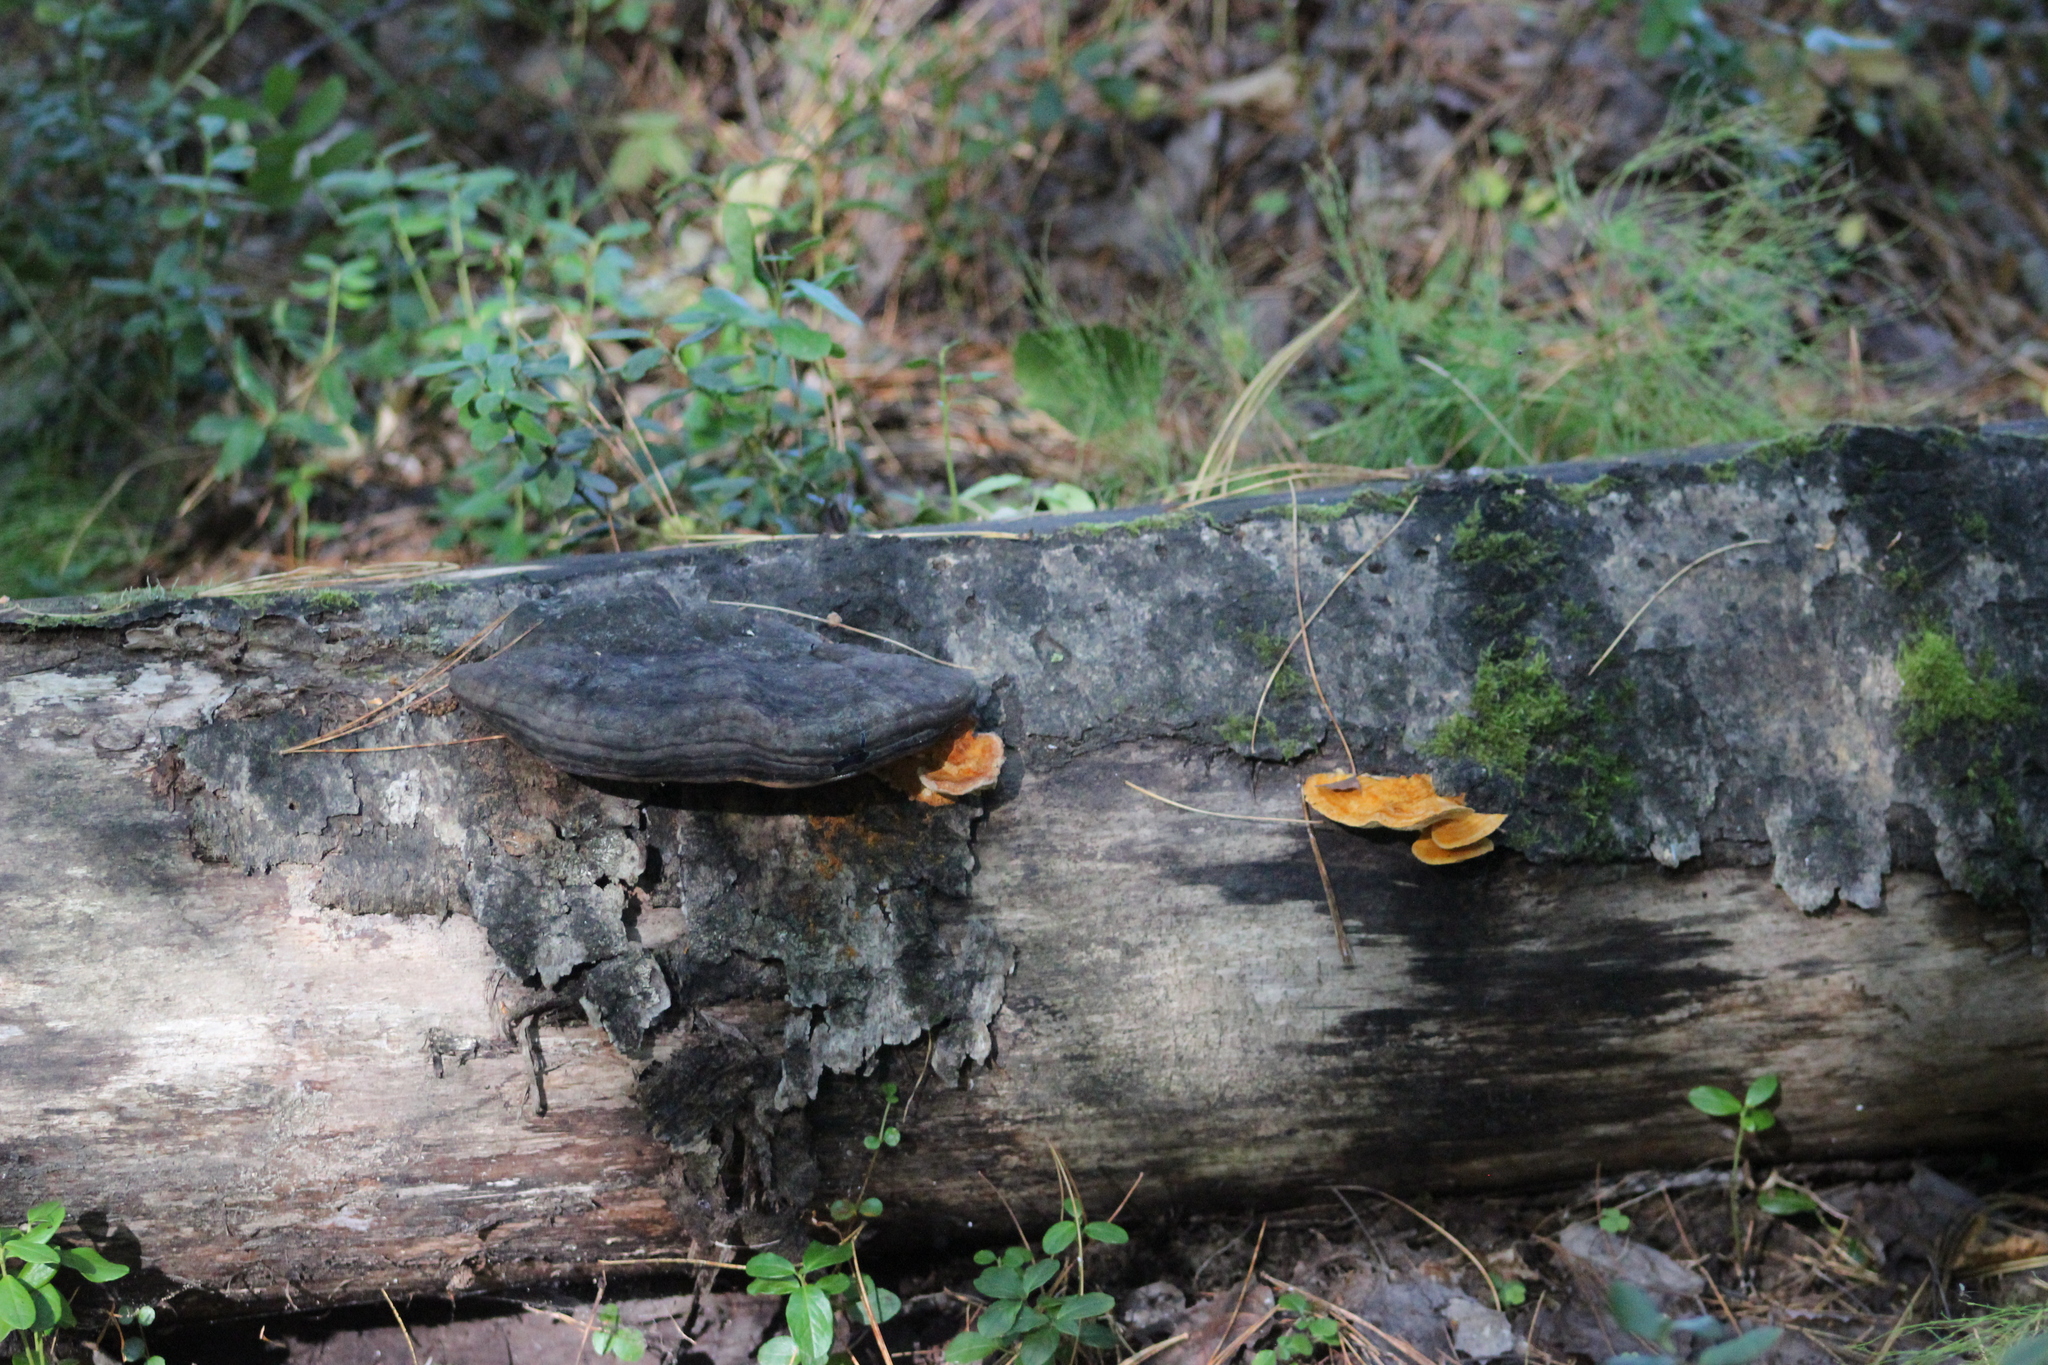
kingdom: Fungi
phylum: Basidiomycota
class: Agaricomycetes
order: Polyporales
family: Pycnoporellaceae
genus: Pycnoporellus
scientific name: Pycnoporellus fulgens
